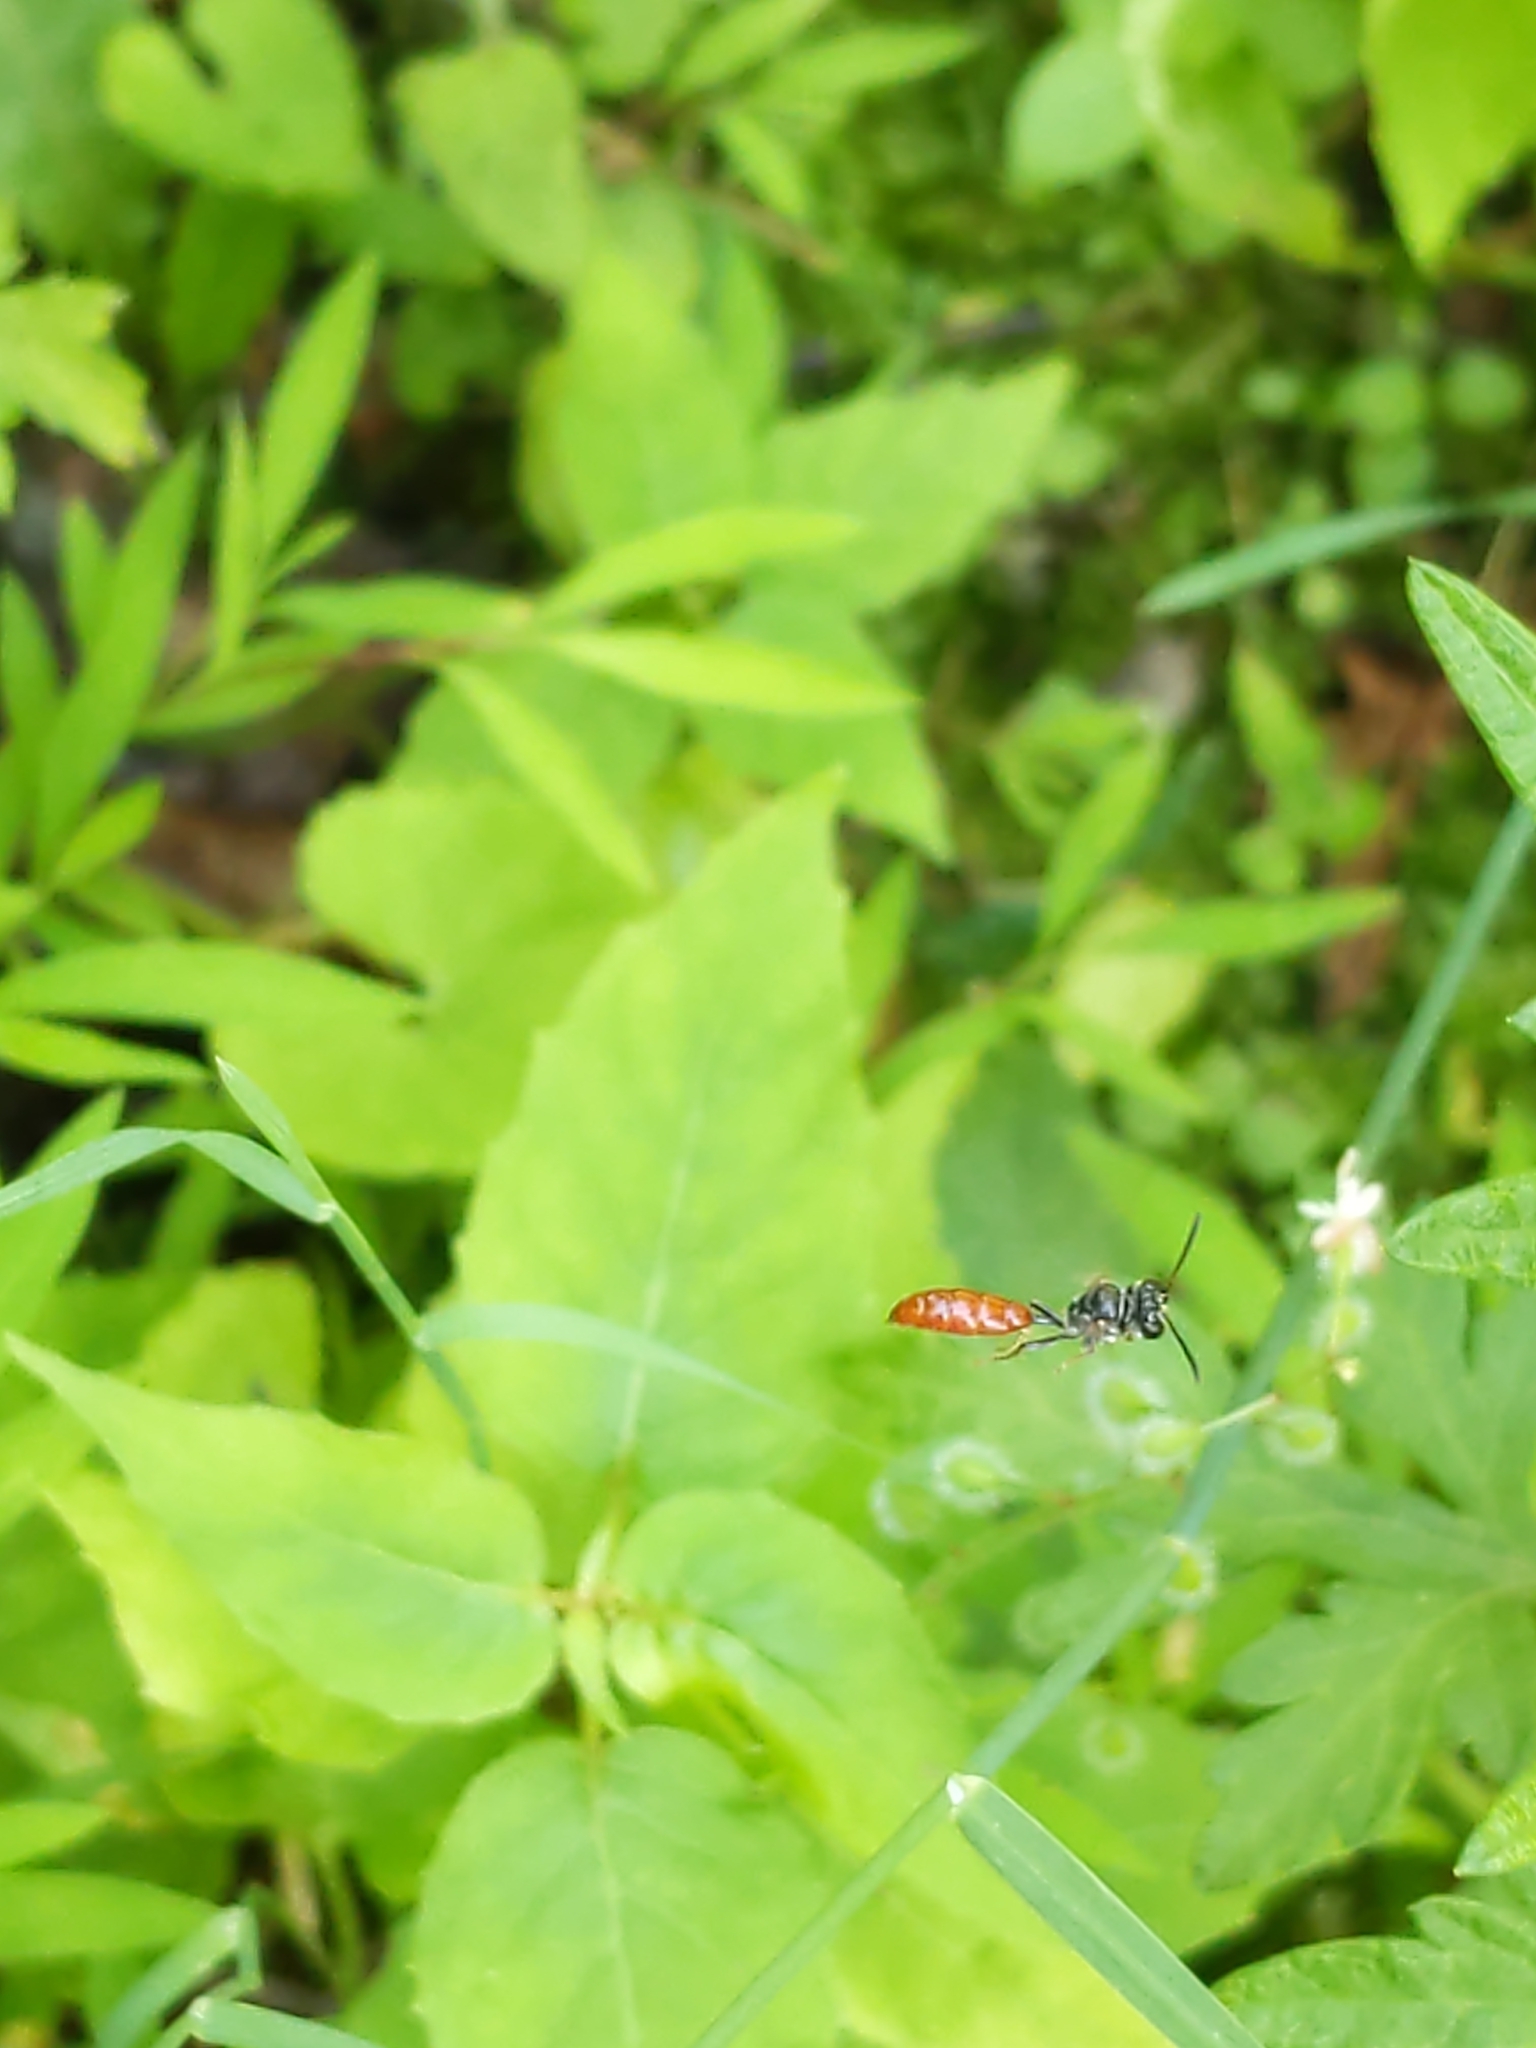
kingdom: Animalia
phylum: Arthropoda
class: Insecta
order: Hymenoptera
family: Crabronidae
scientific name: Crabronidae
